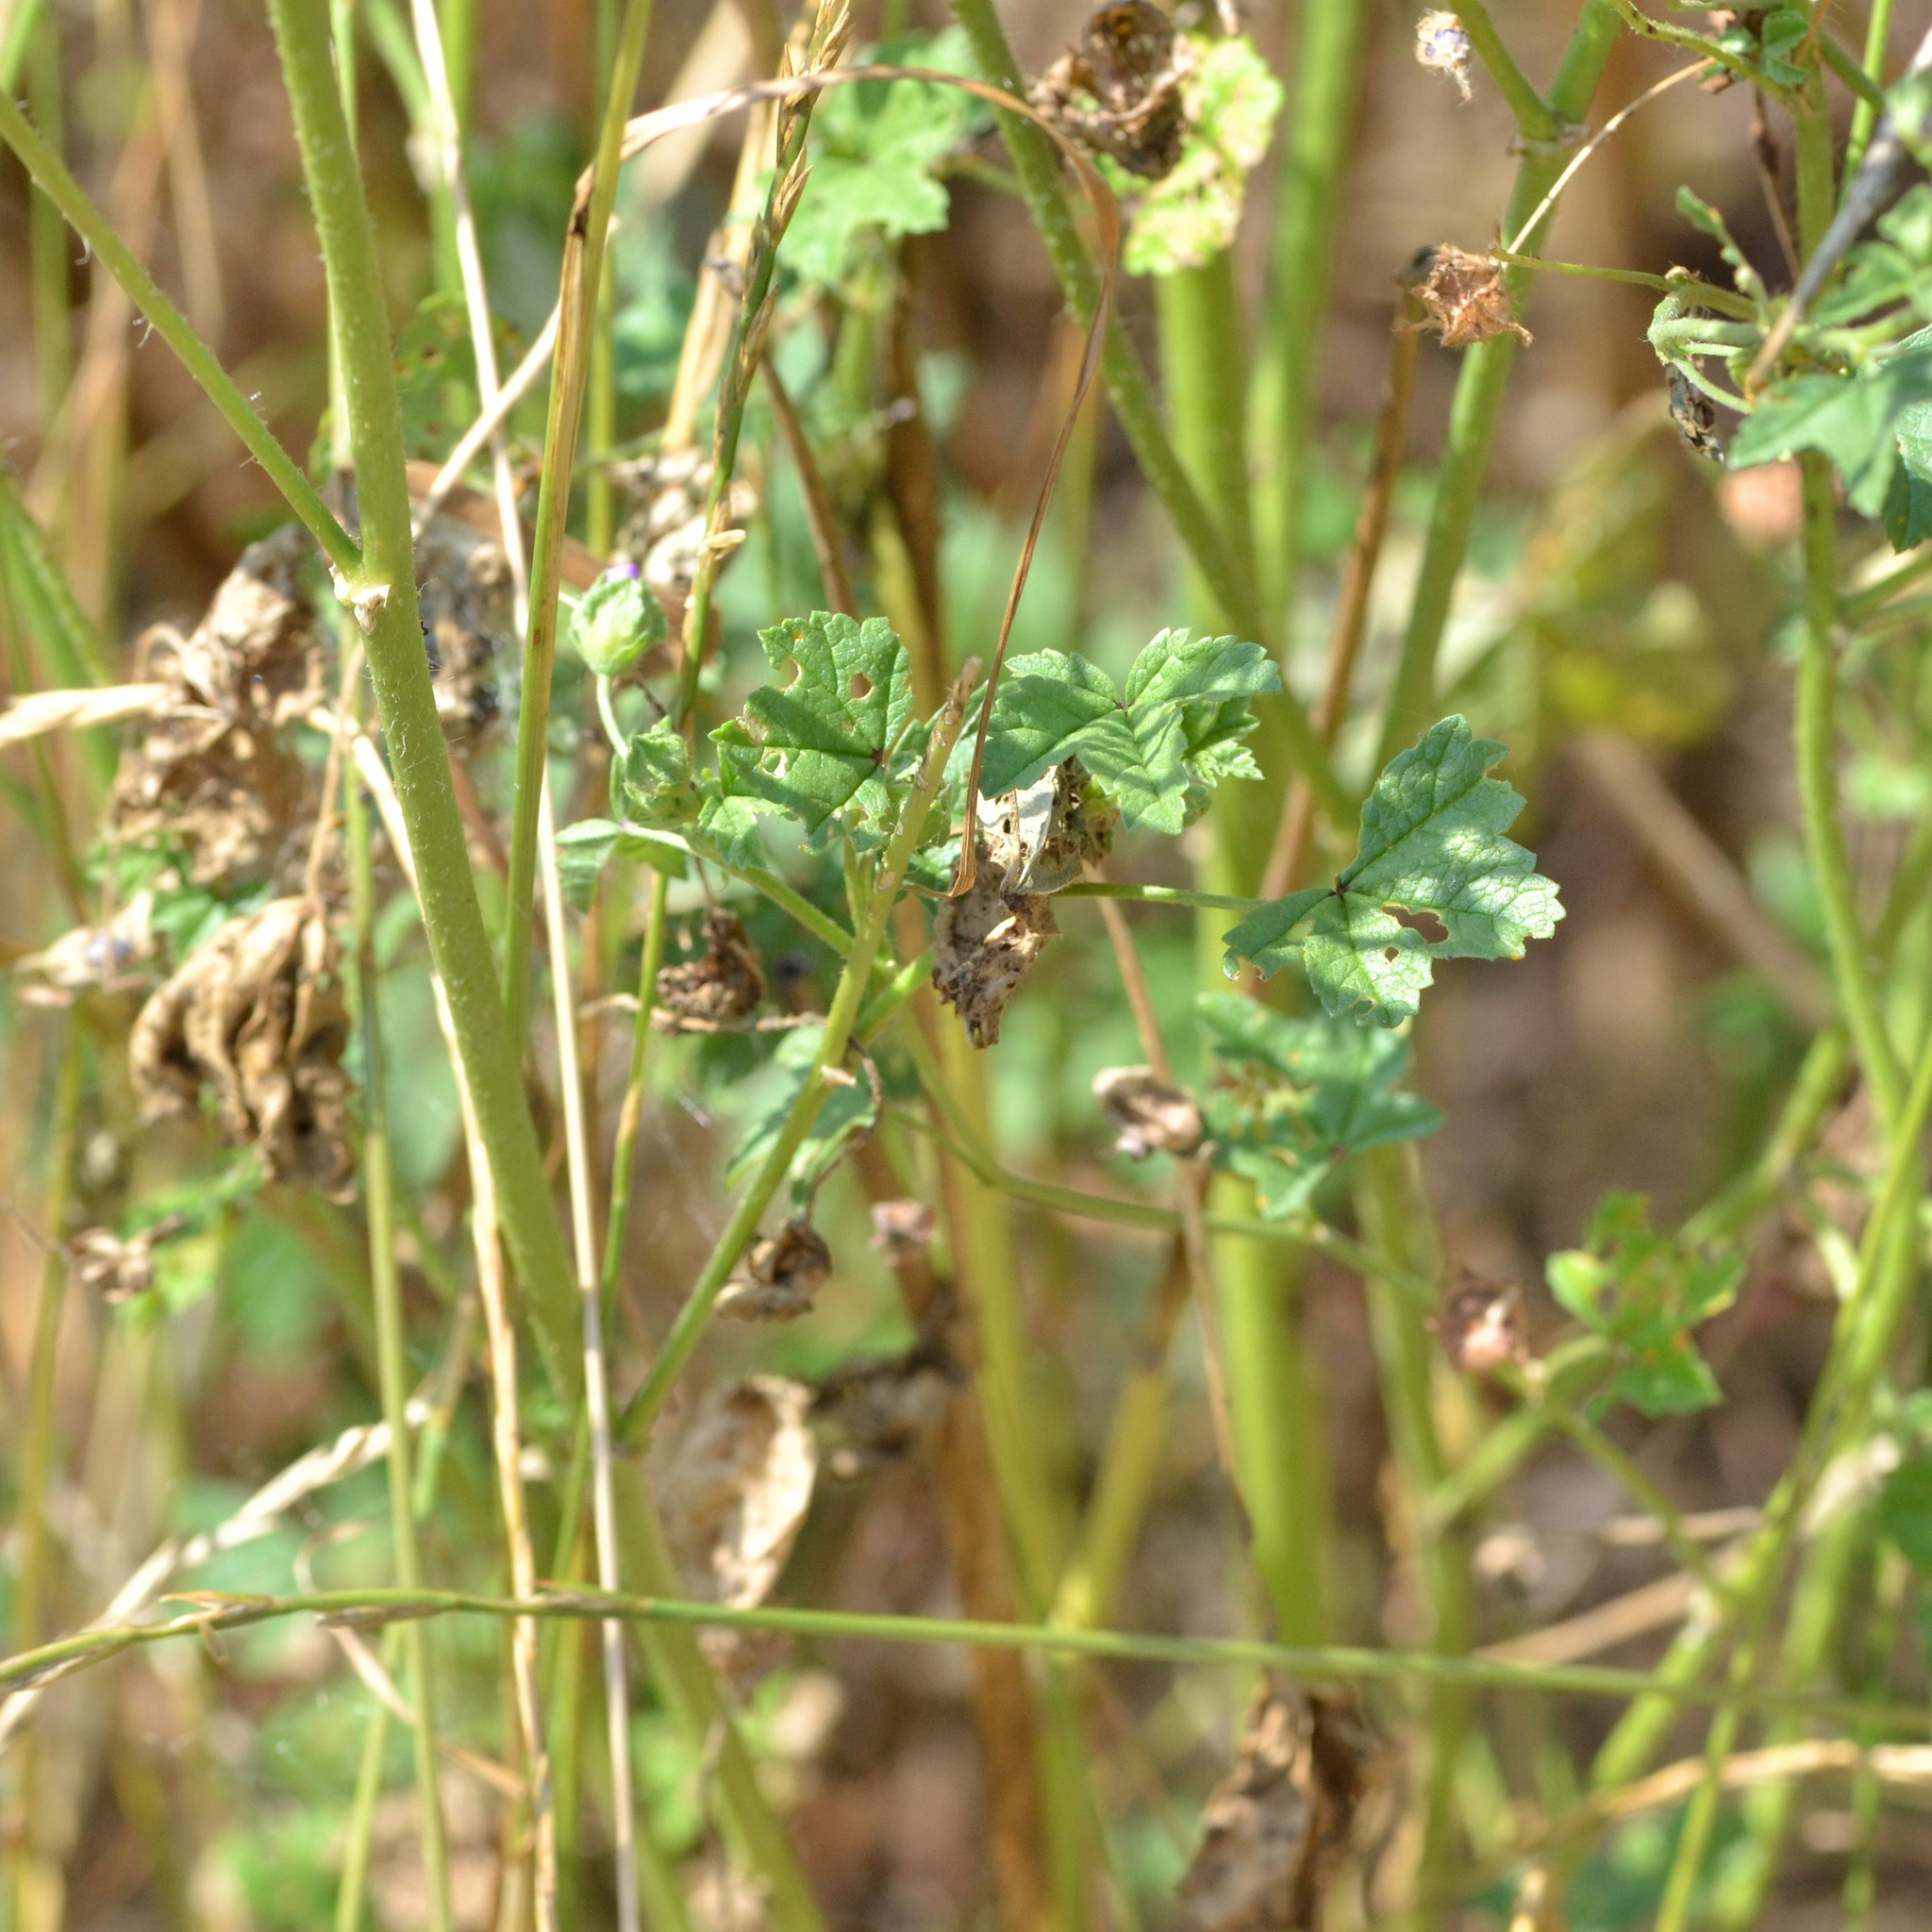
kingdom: Plantae
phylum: Tracheophyta
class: Magnoliopsida
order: Malvales
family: Malvaceae
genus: Malva
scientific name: Malva sylvestris
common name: Common mallow
